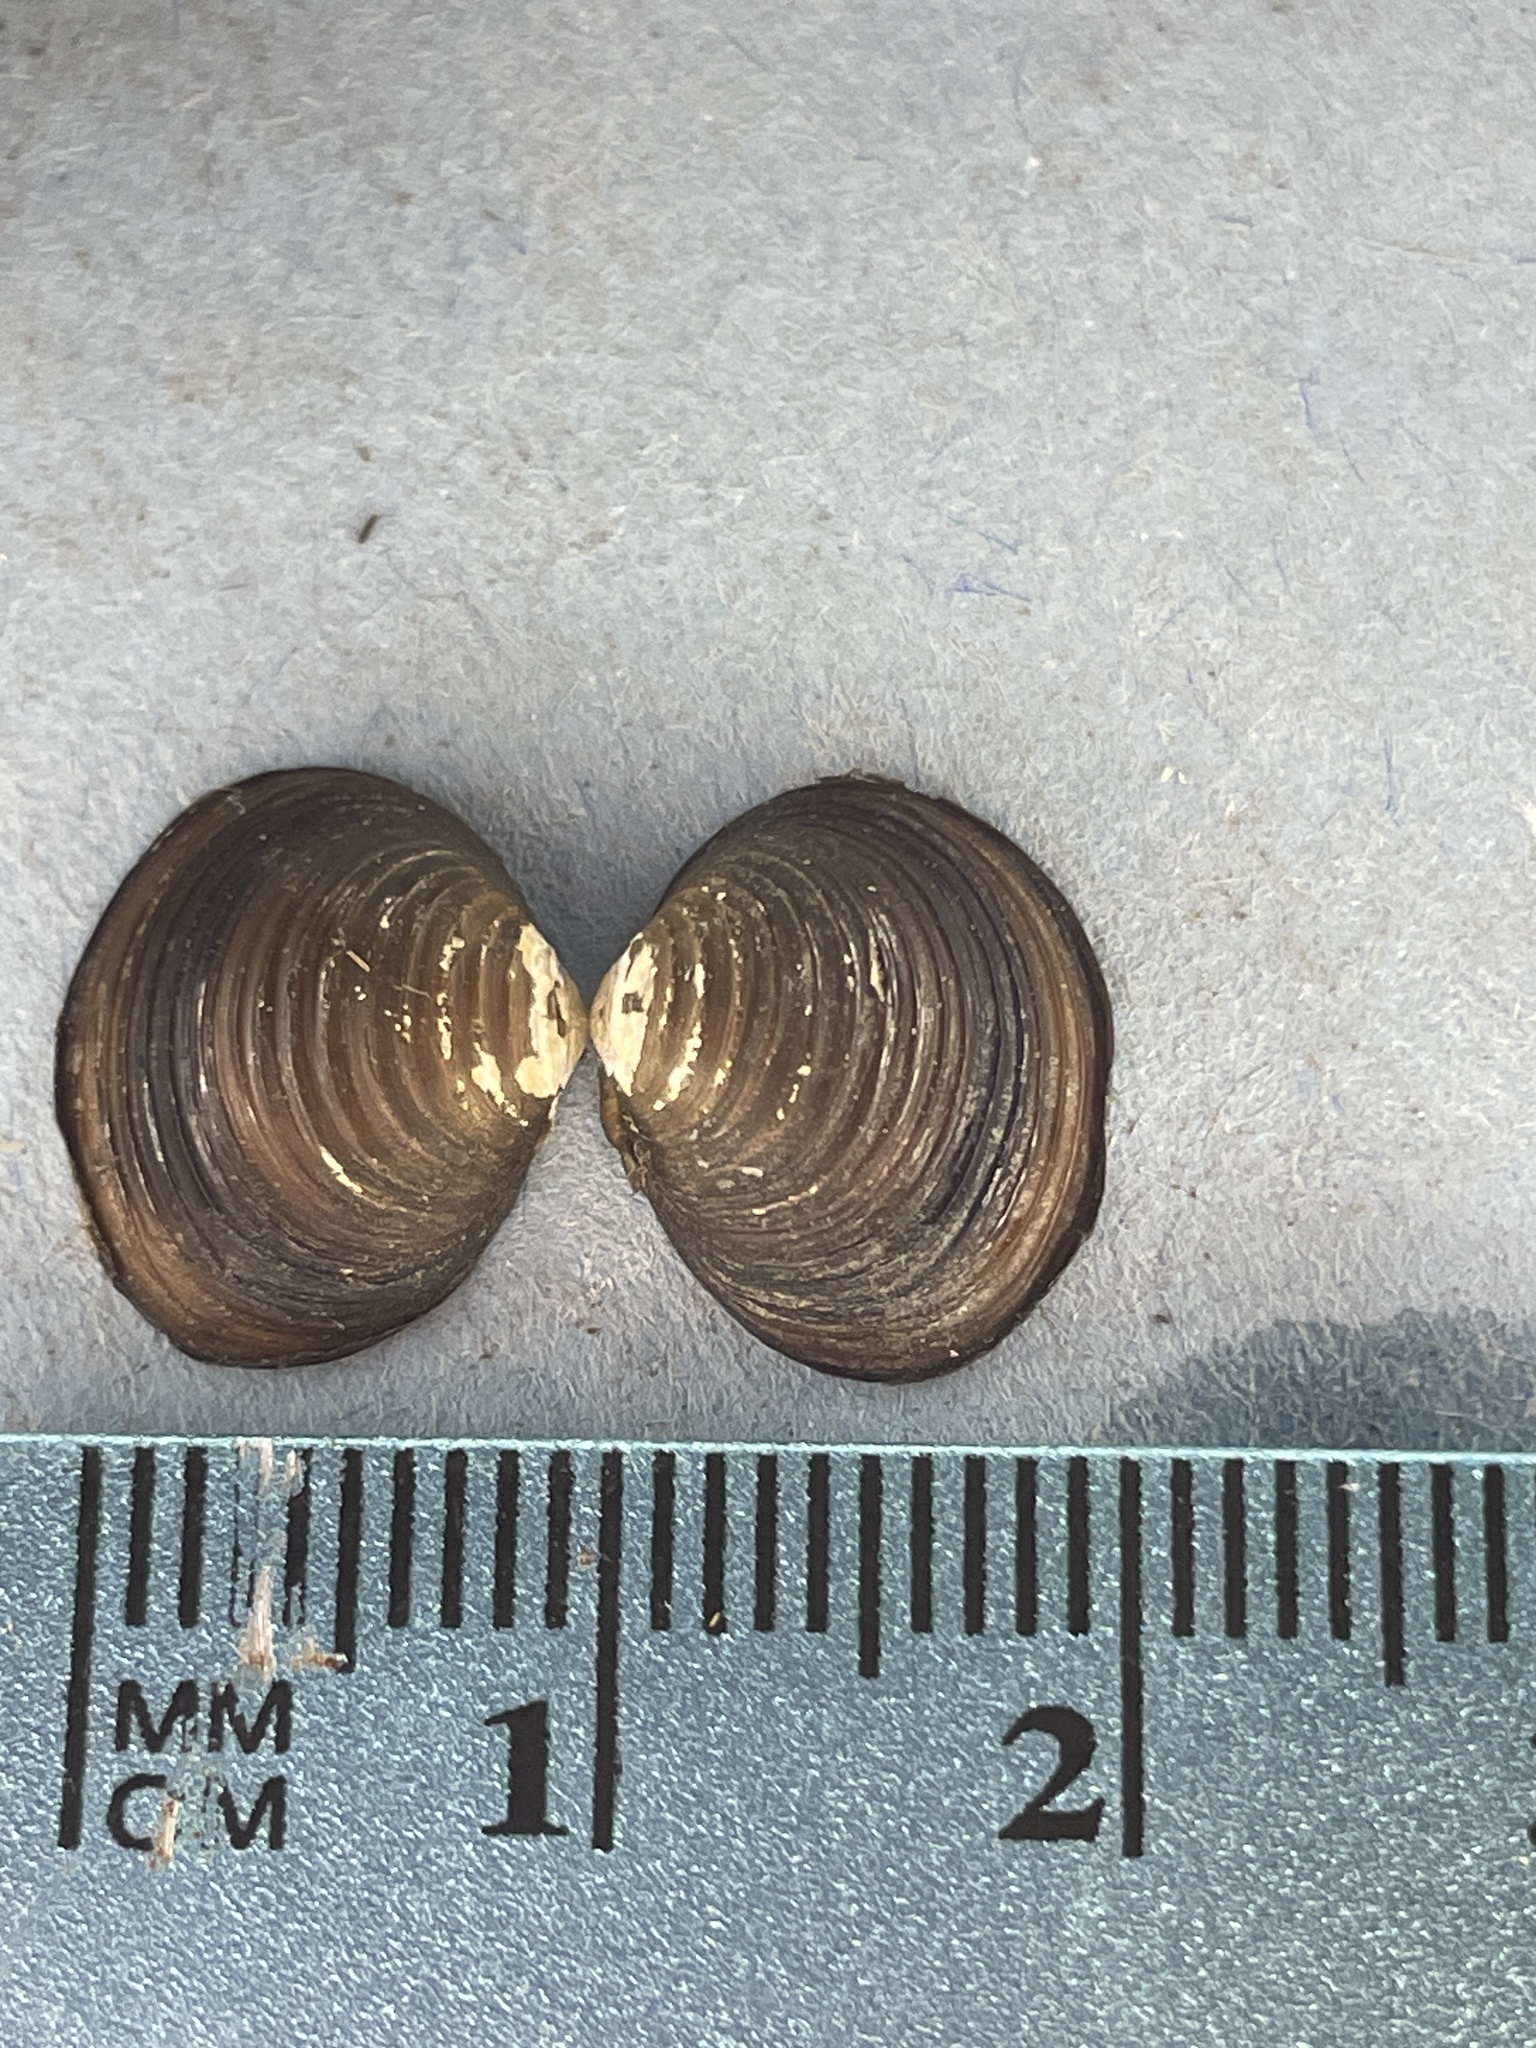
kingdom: Animalia
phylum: Mollusca
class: Bivalvia
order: Venerida
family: Cyrenidae
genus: Corbicula
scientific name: Corbicula fluminea
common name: Asian clam
